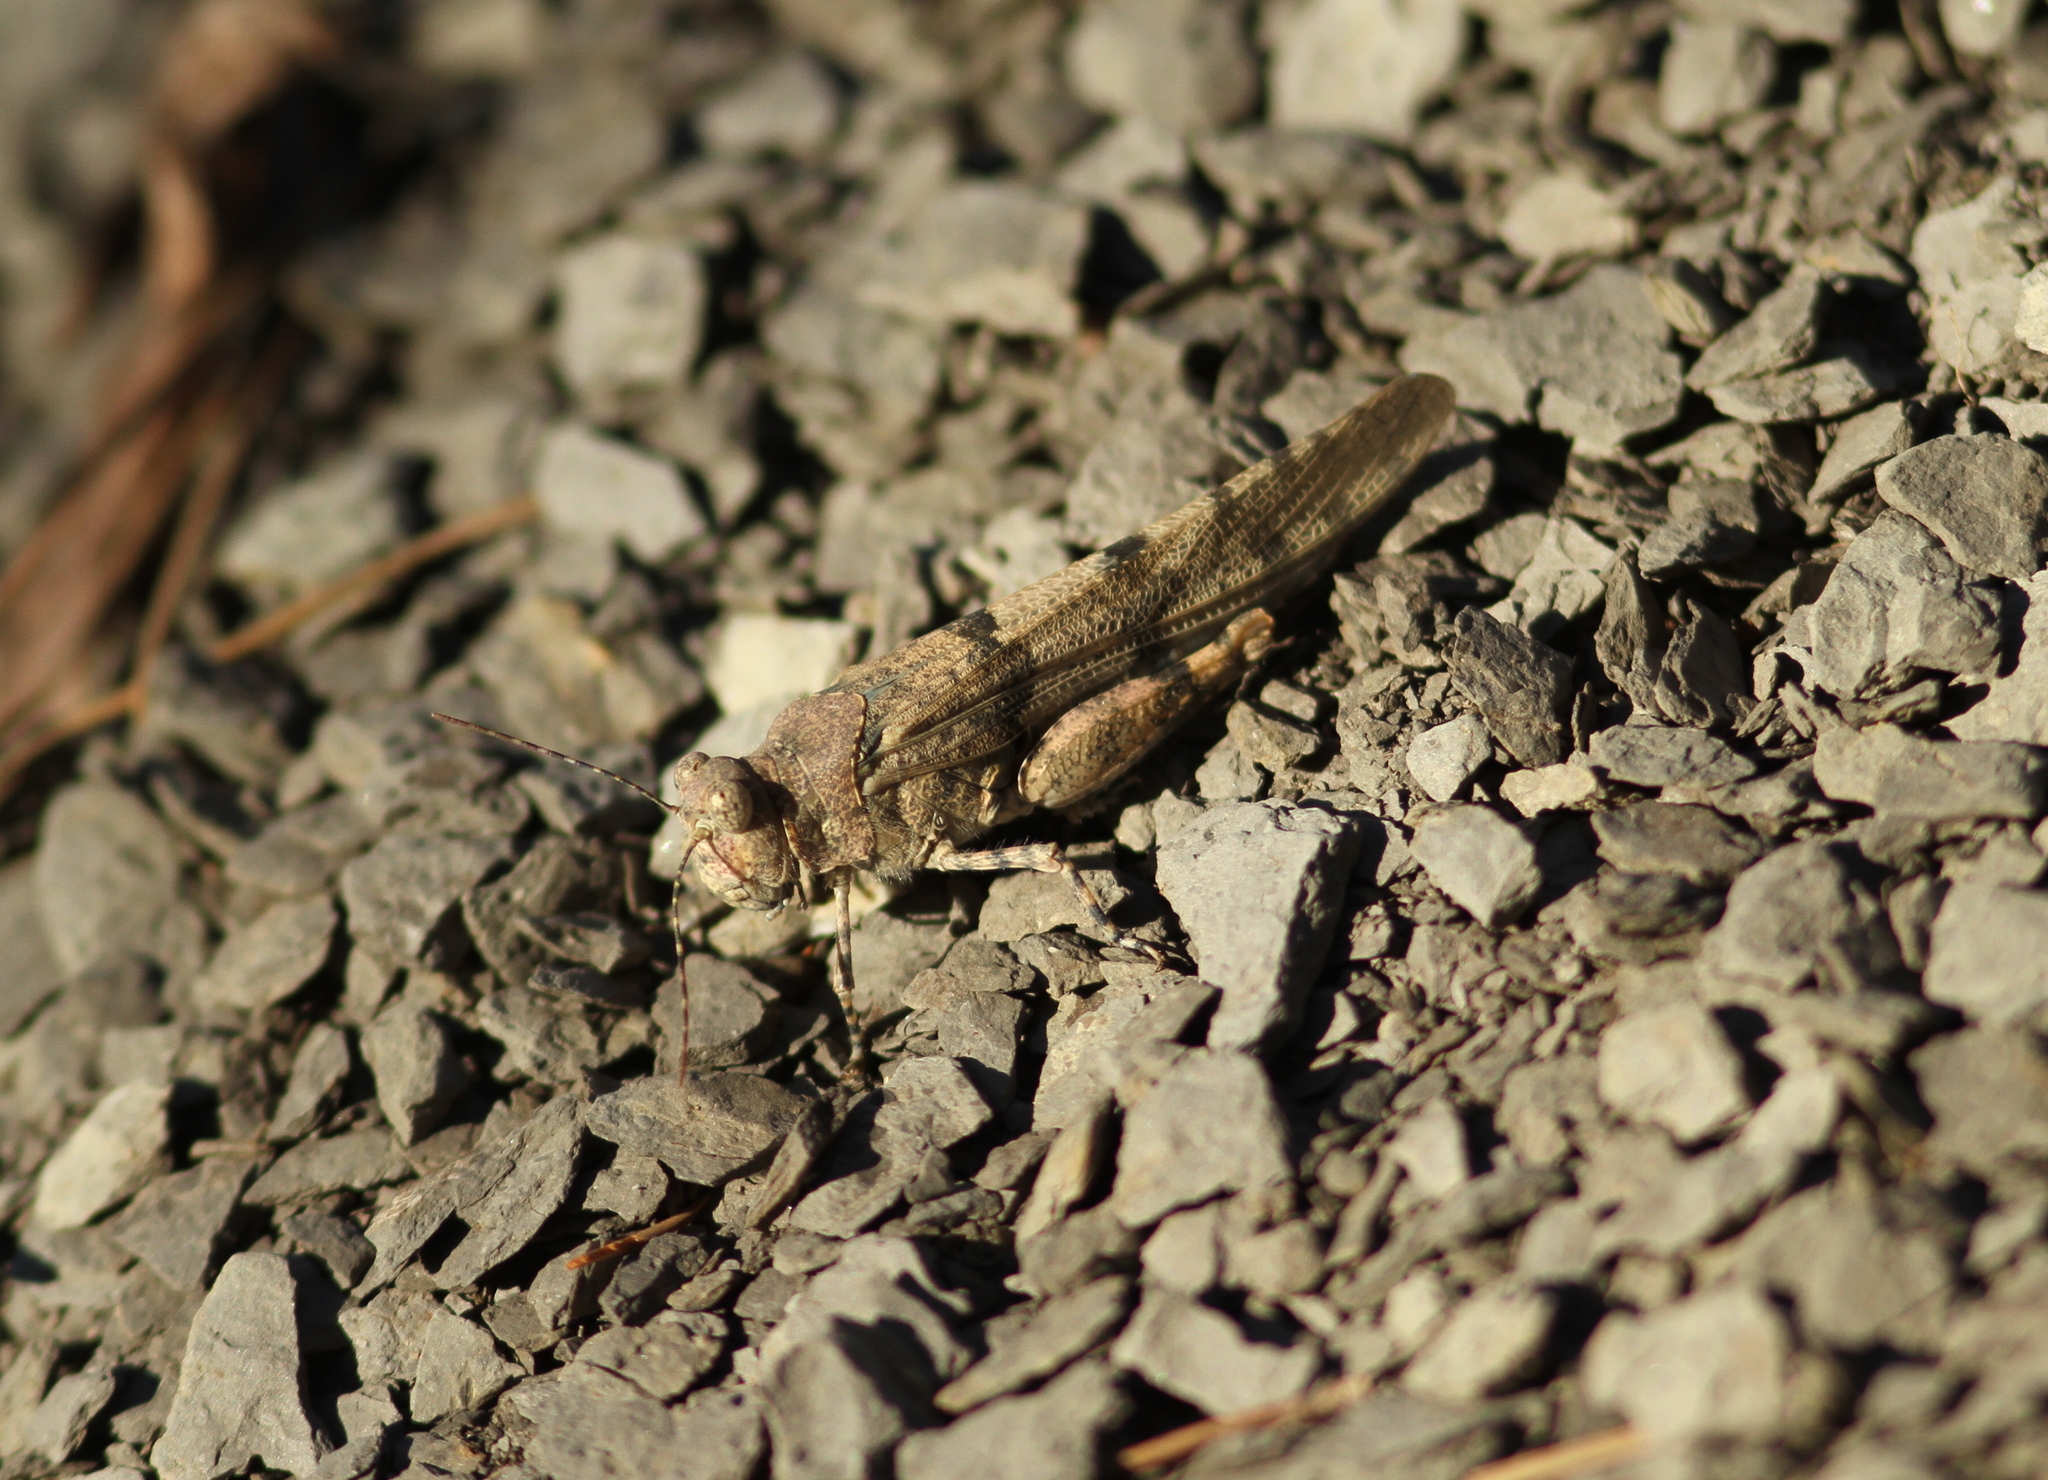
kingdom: Animalia
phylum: Arthropoda
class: Insecta
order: Orthoptera
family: Acrididae
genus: Sphingonotus
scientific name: Sphingonotus caerulans
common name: Blue-winged locust
